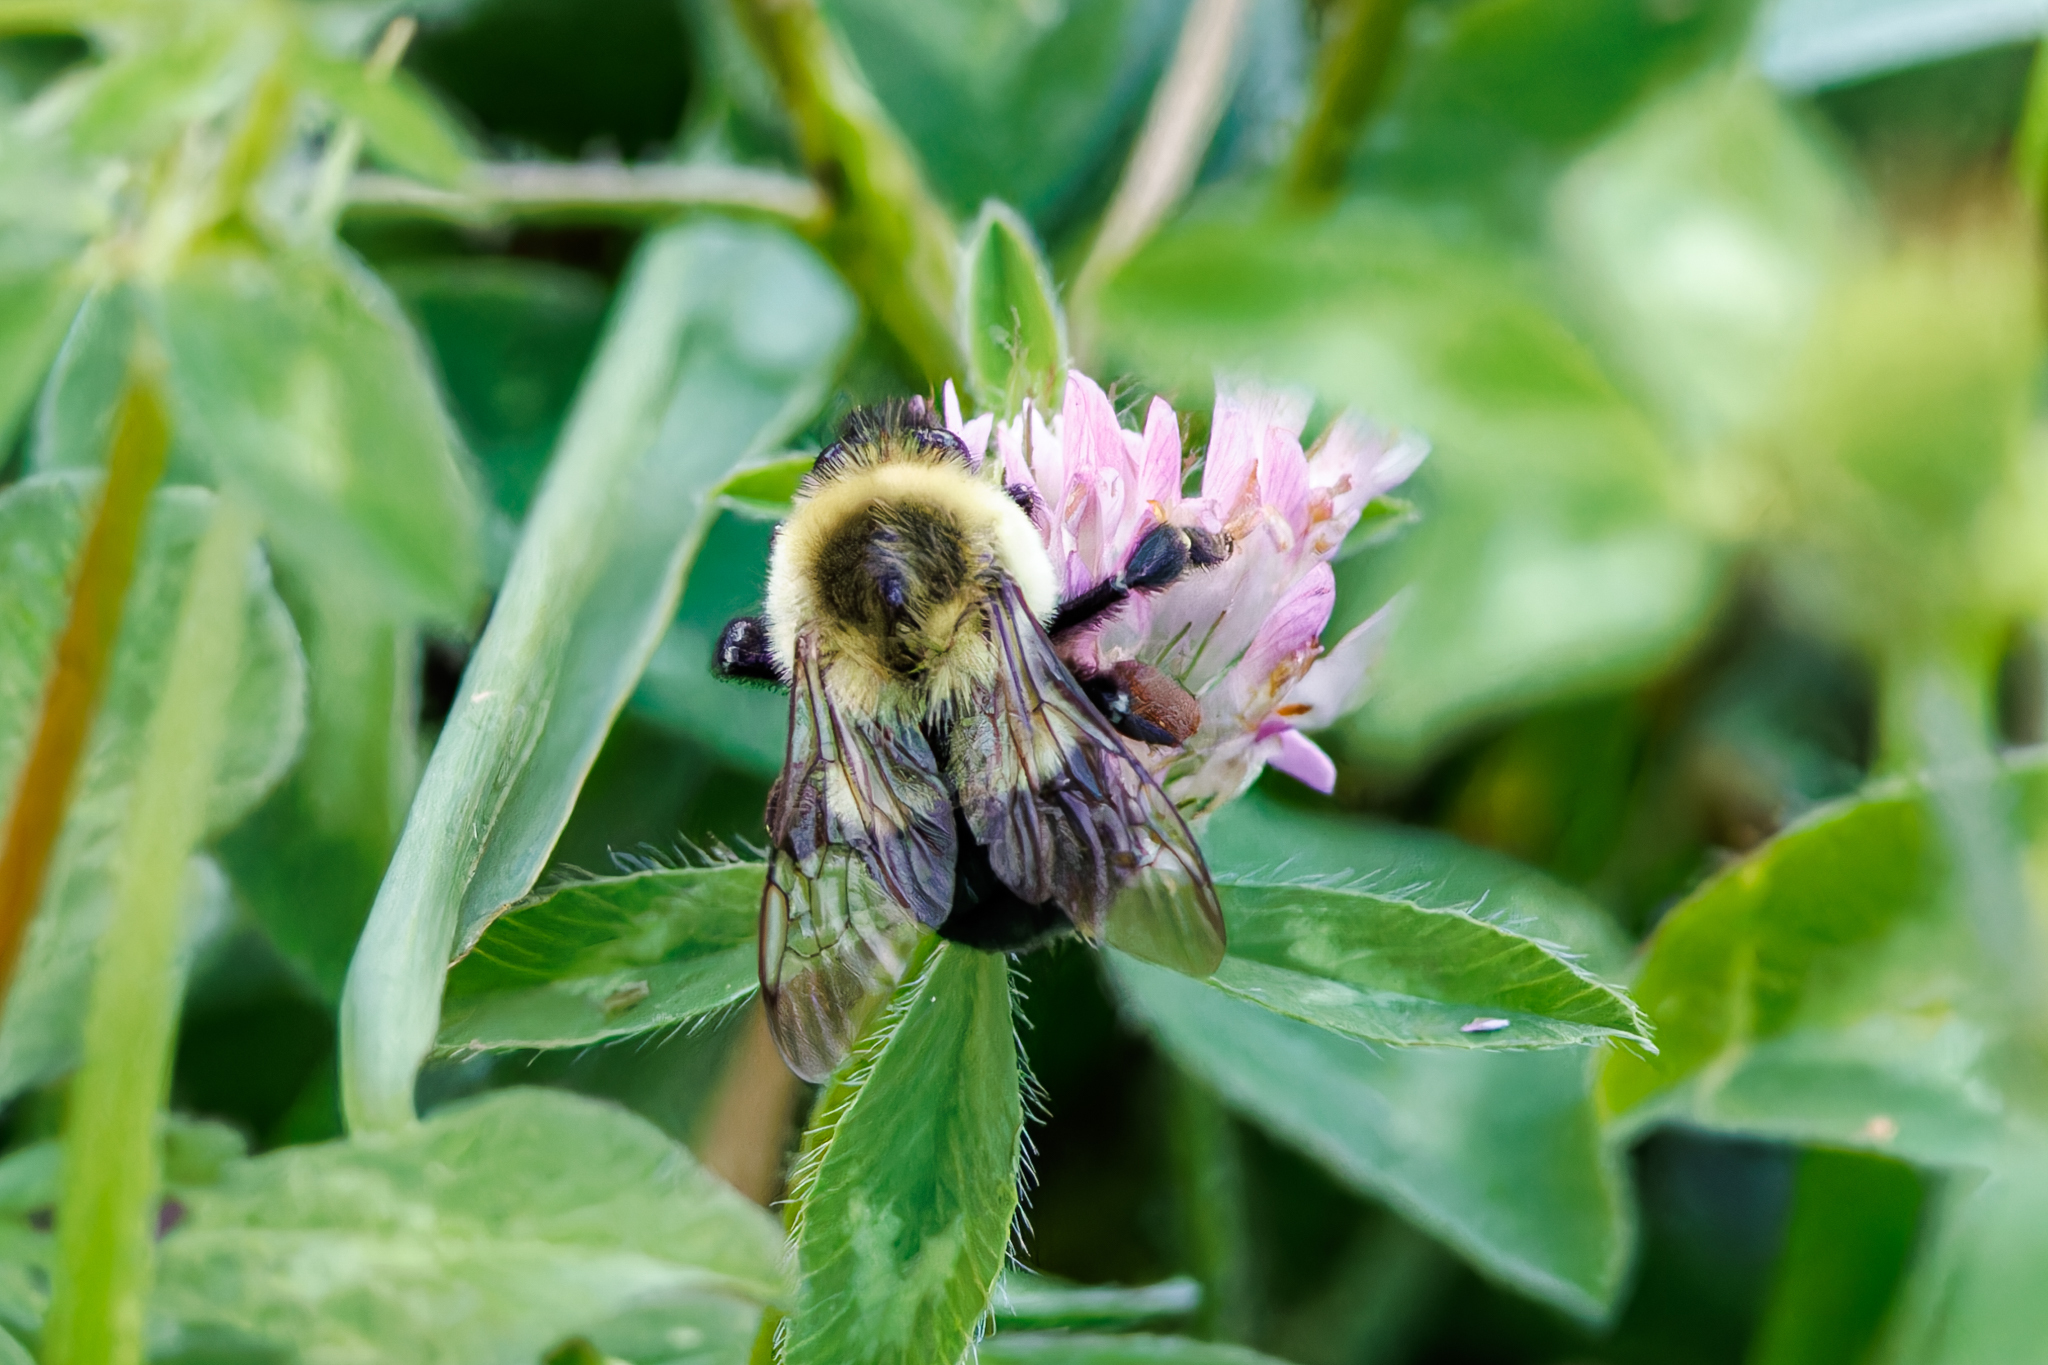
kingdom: Animalia
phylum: Arthropoda
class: Insecta
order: Hymenoptera
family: Apidae
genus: Bombus
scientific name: Bombus impatiens
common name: Common eastern bumble bee
